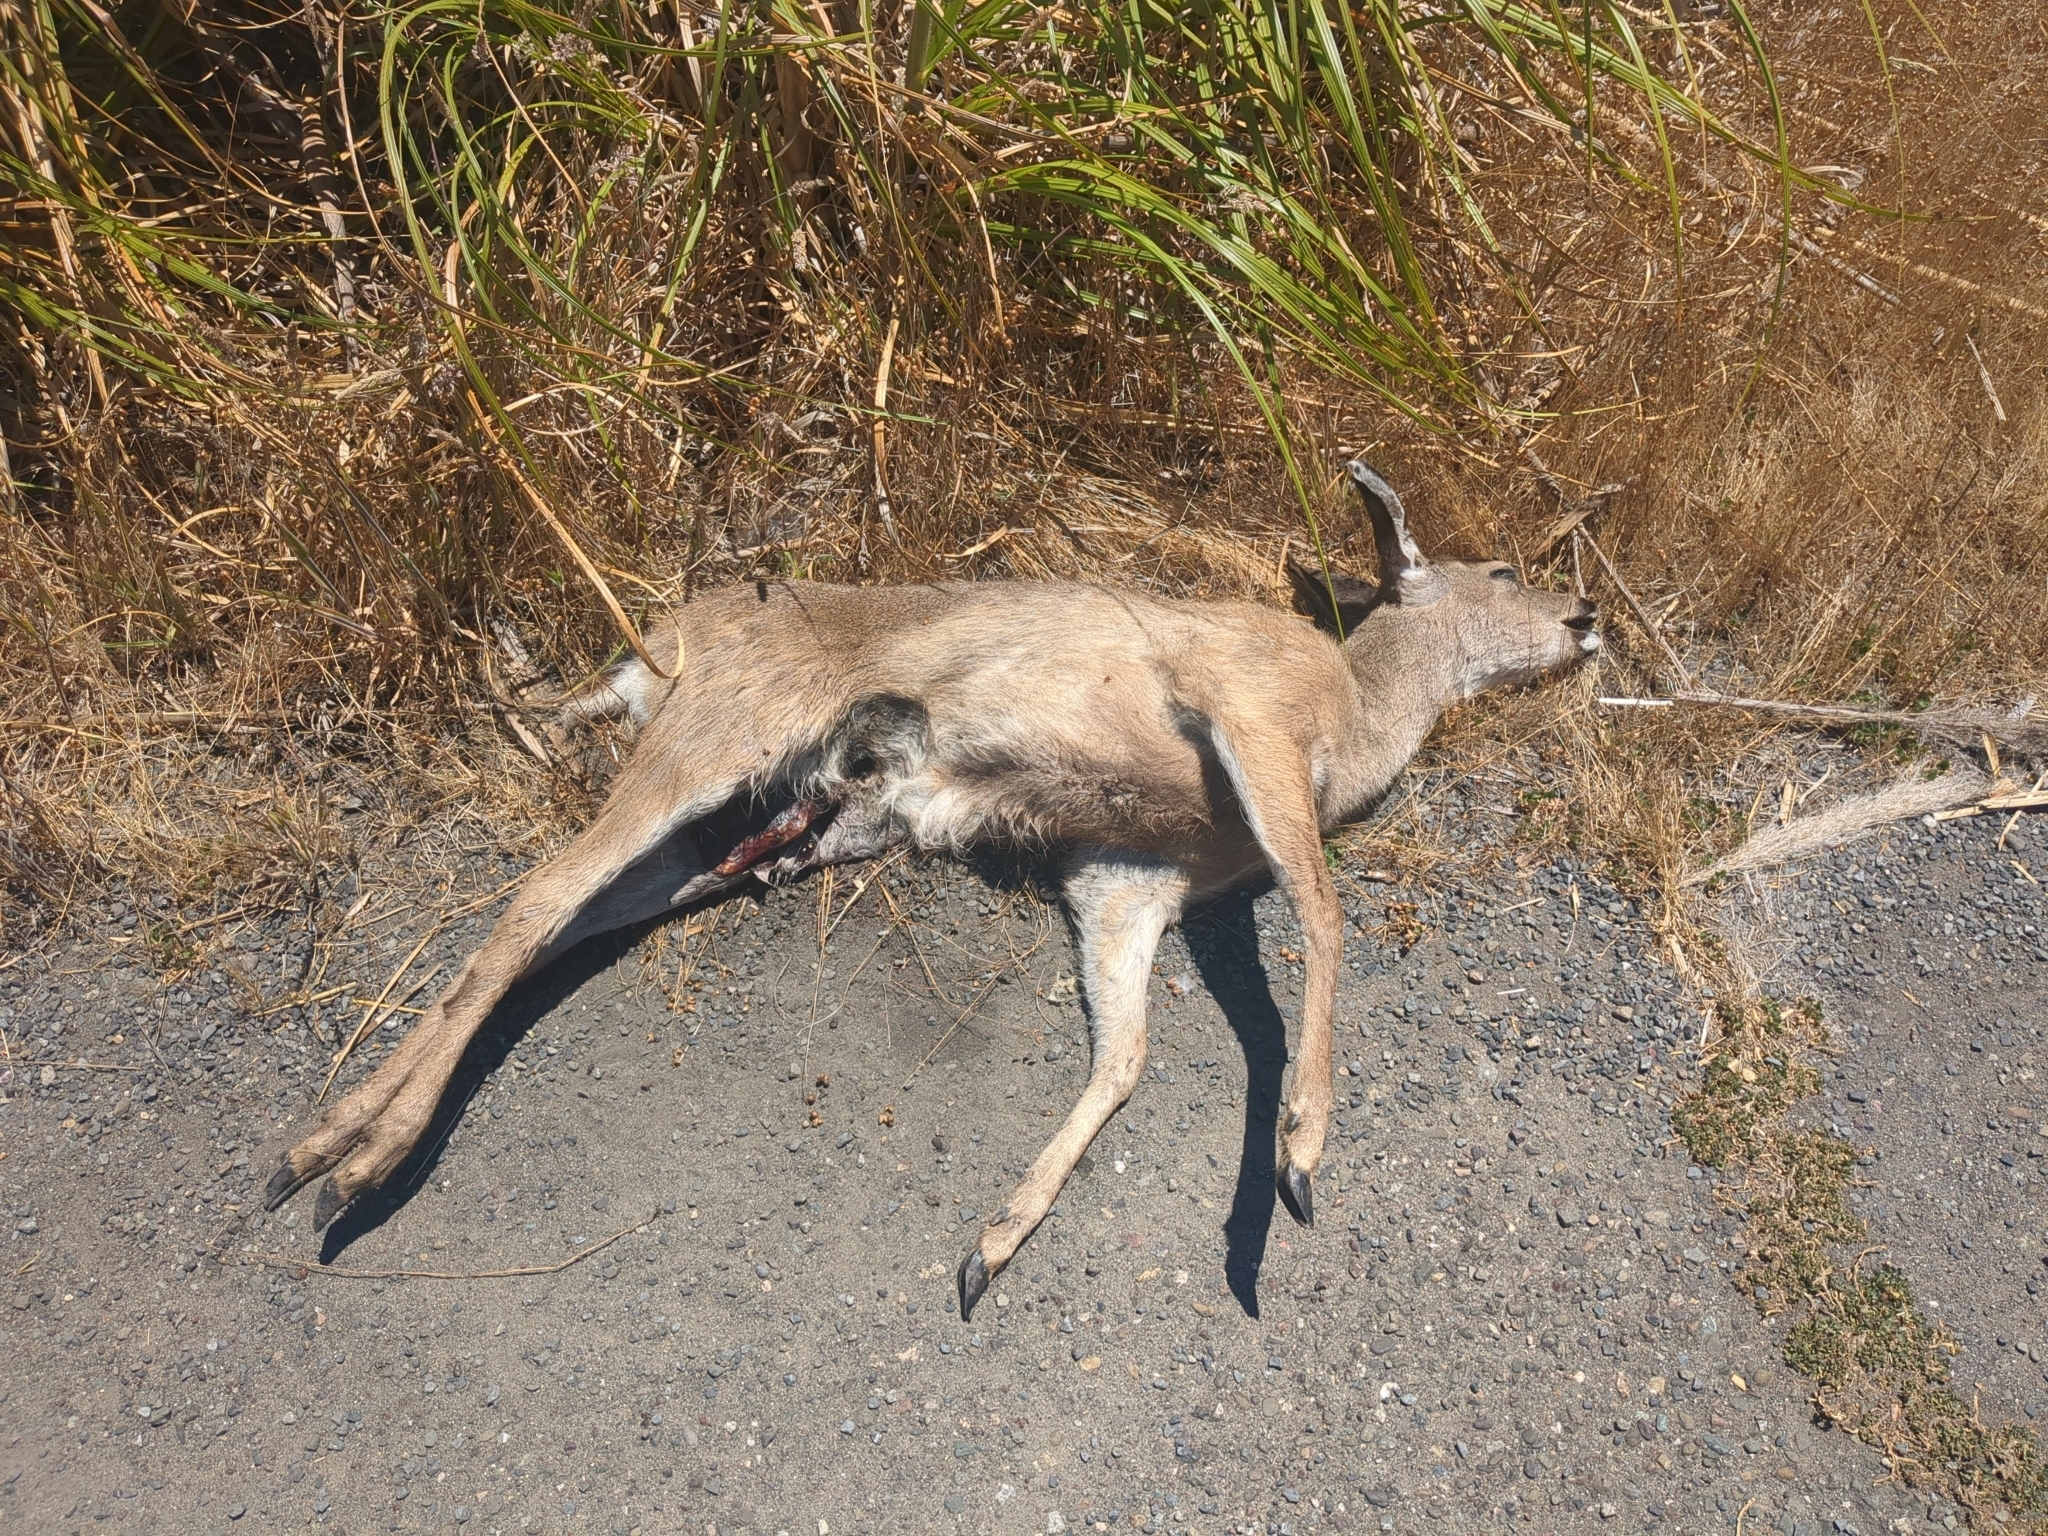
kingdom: Animalia
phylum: Chordata
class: Mammalia
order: Artiodactyla
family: Cervidae
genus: Odocoileus
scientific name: Odocoileus hemionus
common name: Mule deer
